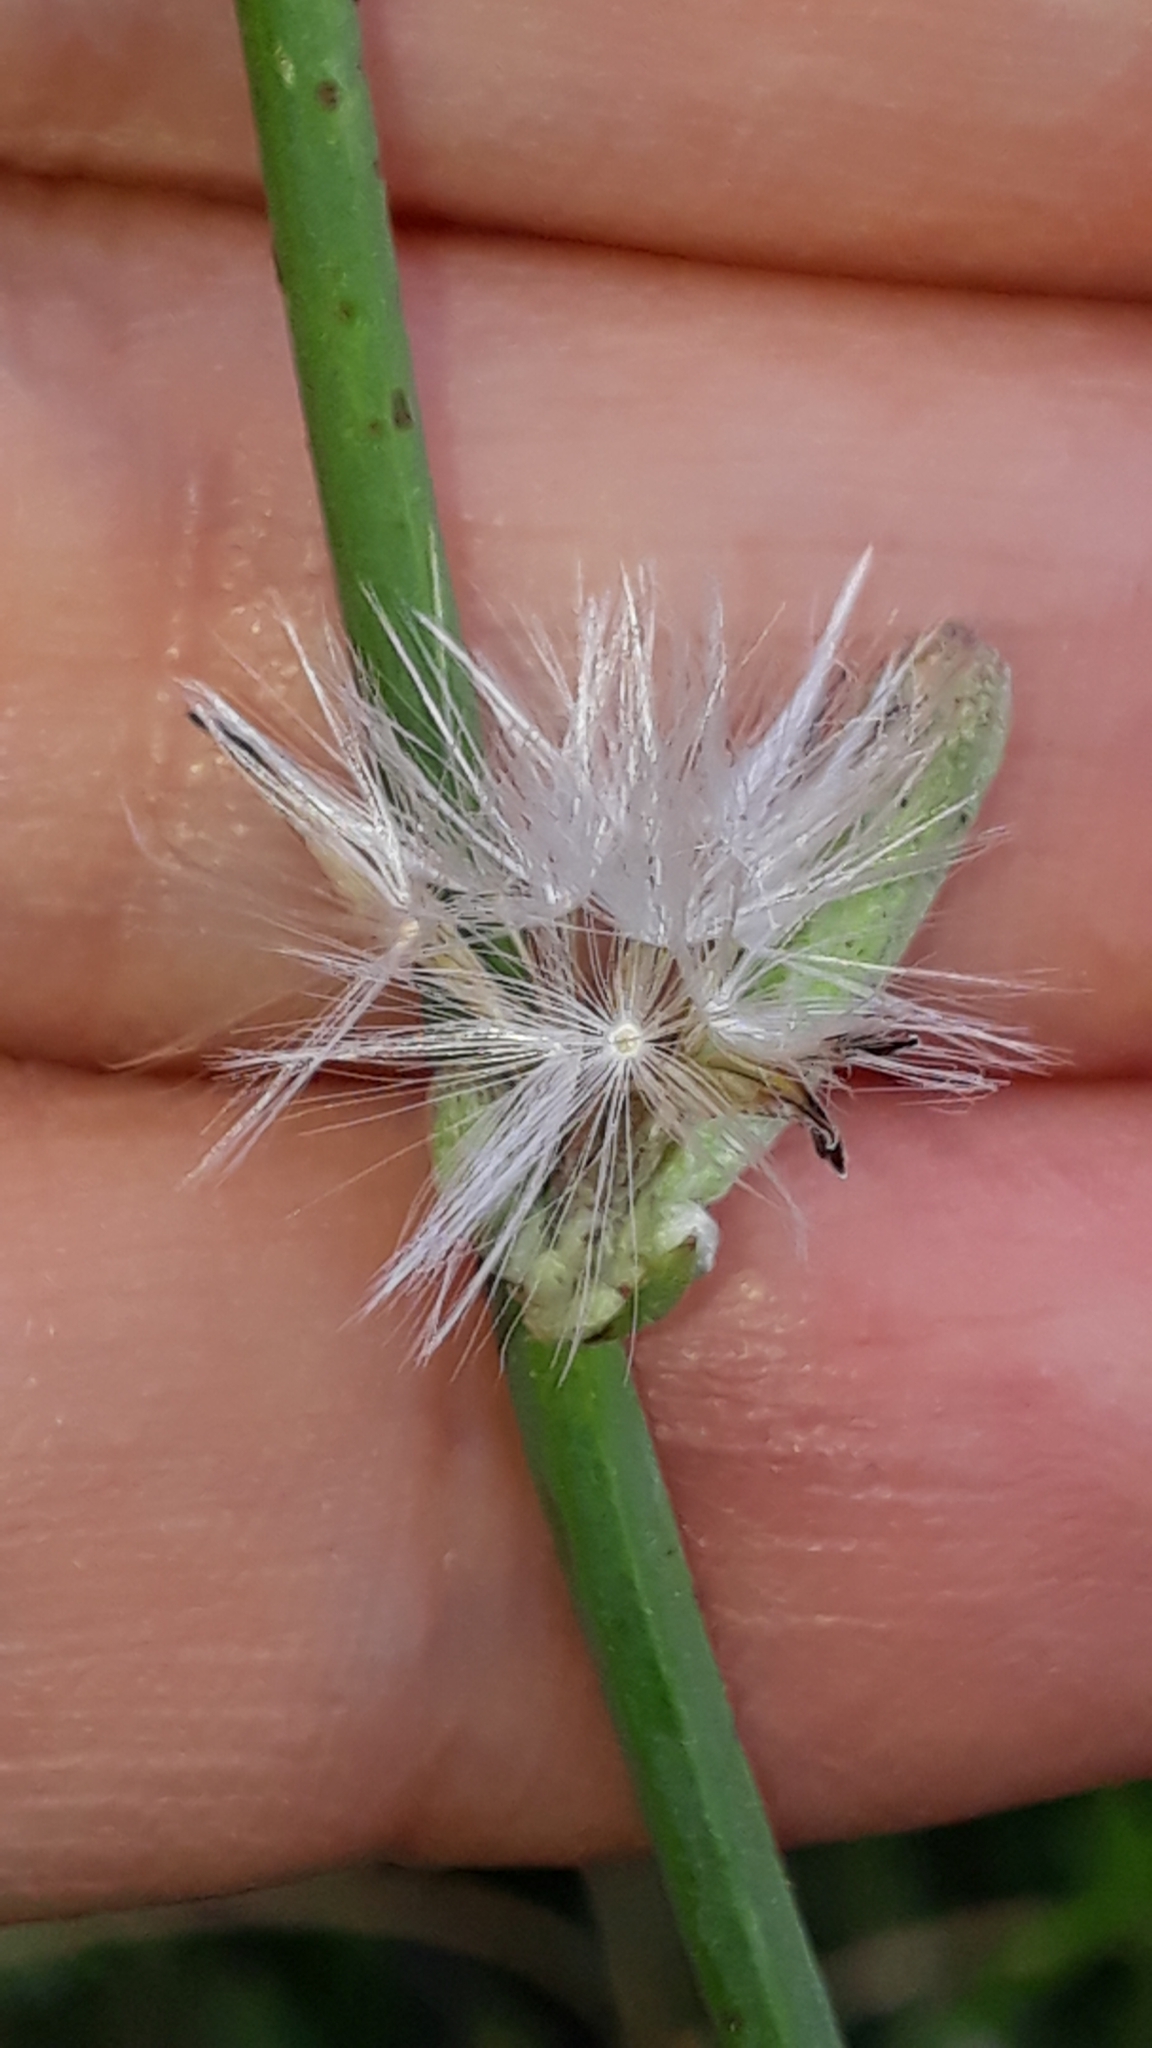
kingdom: Plantae
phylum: Tracheophyta
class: Magnoliopsida
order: Asterales
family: Asteraceae
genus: Chondrilla
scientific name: Chondrilla juncea
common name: Skeleton weed
